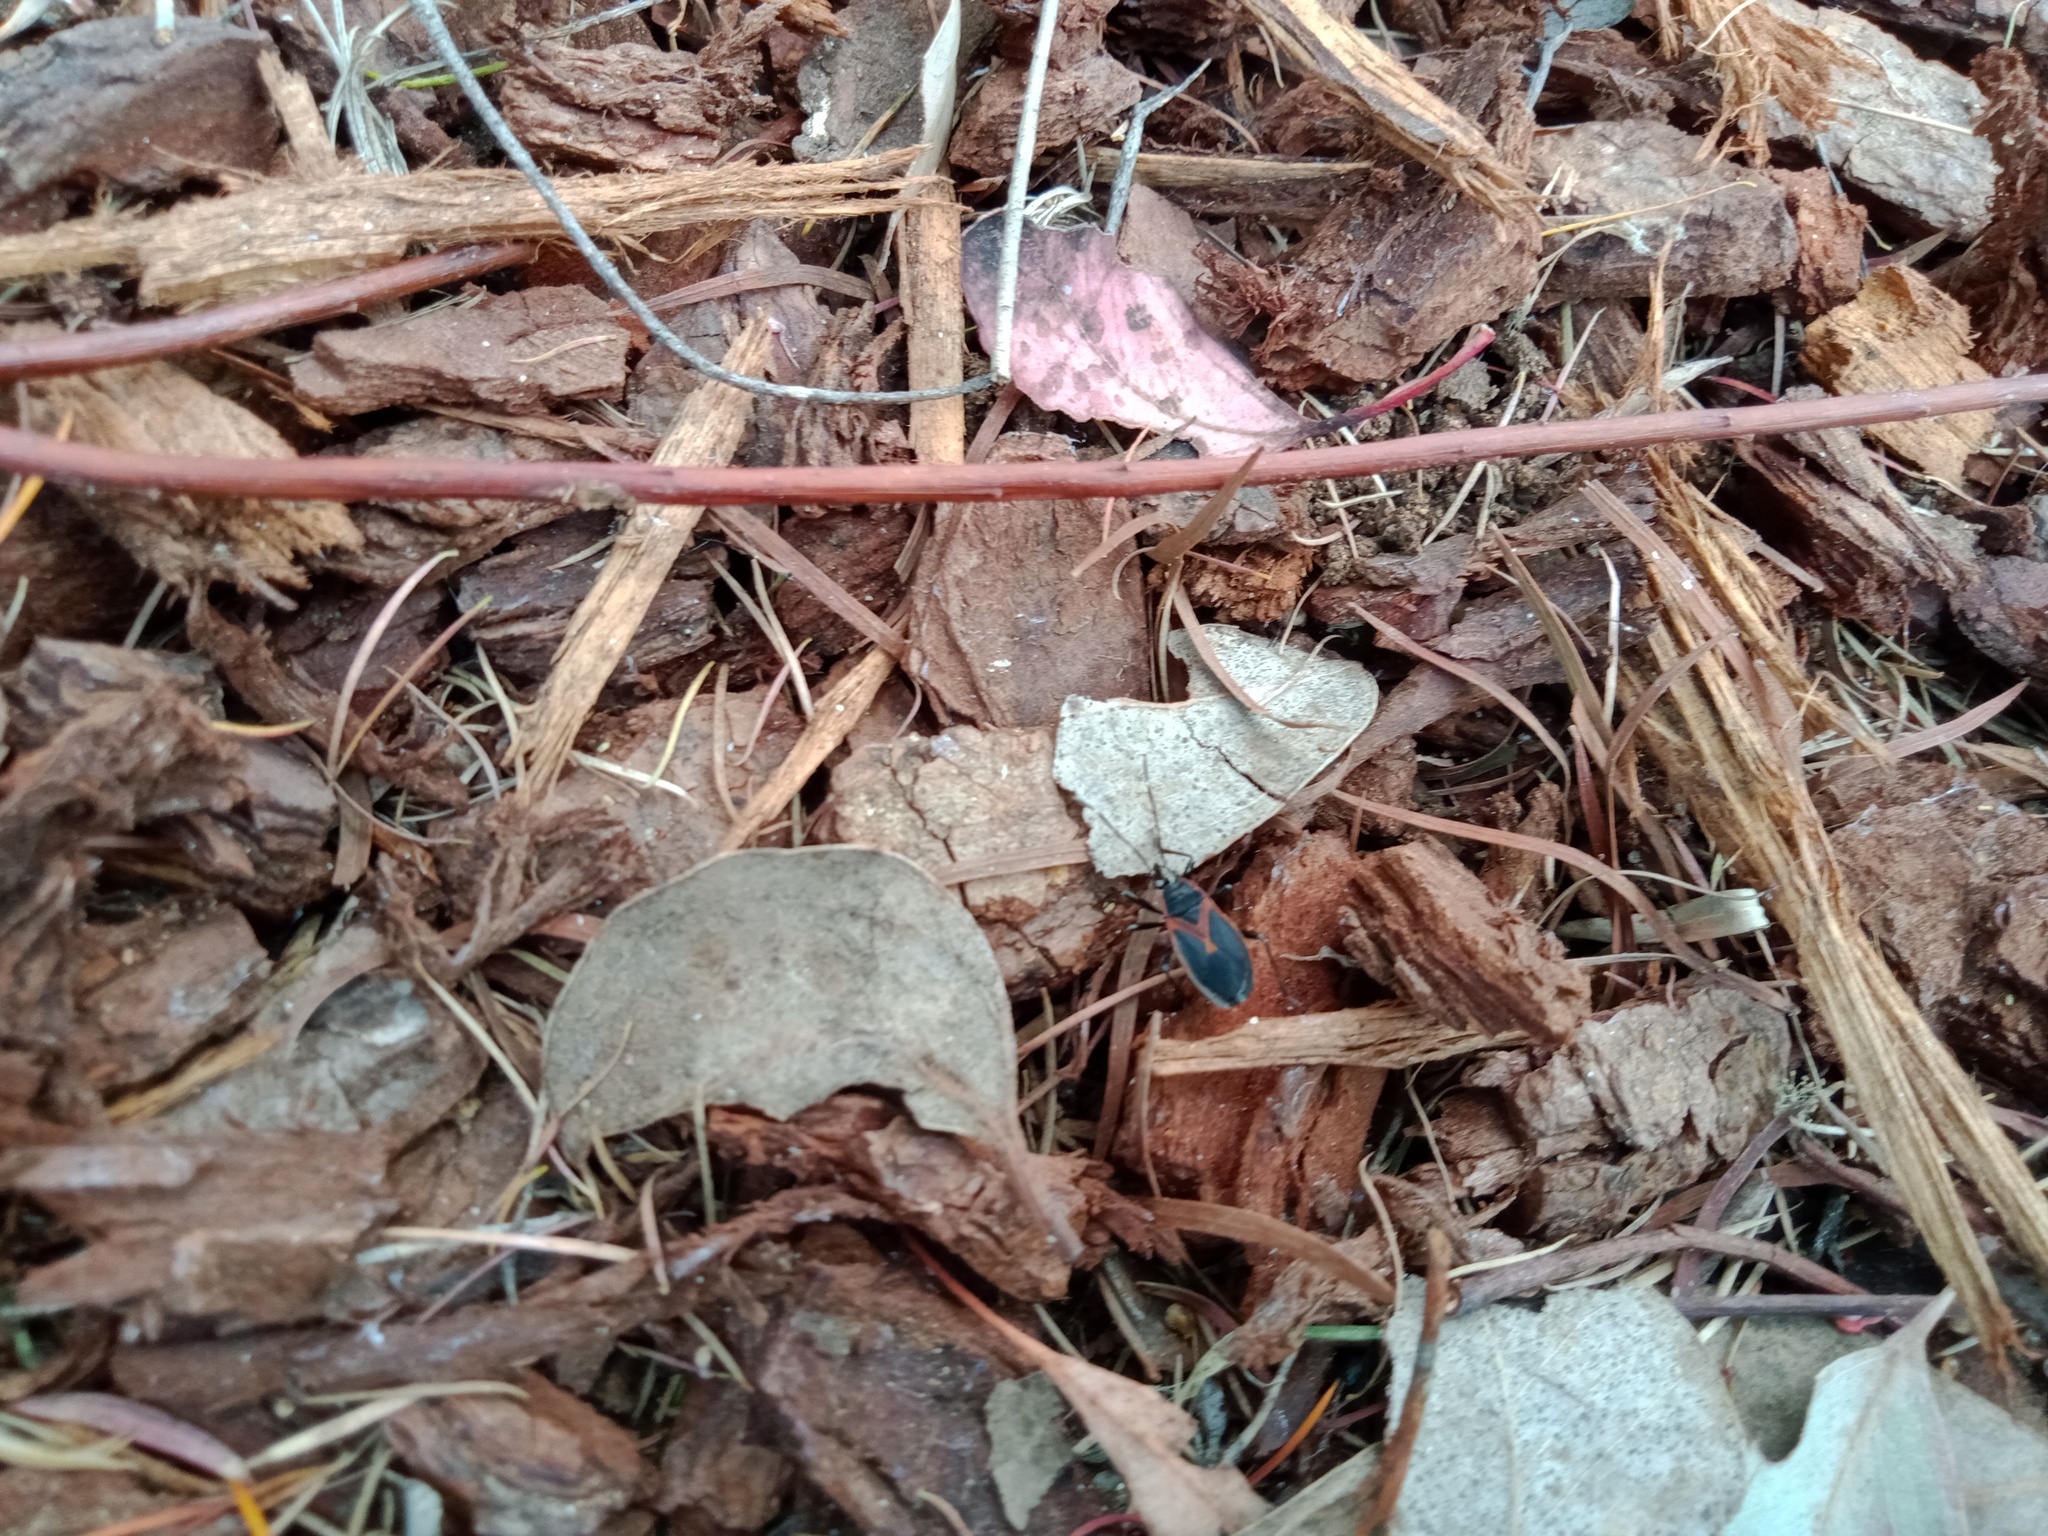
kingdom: Animalia
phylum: Arthropoda
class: Insecta
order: Hemiptera
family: Pyrrhocoridae
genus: Dindymus
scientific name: Dindymus
